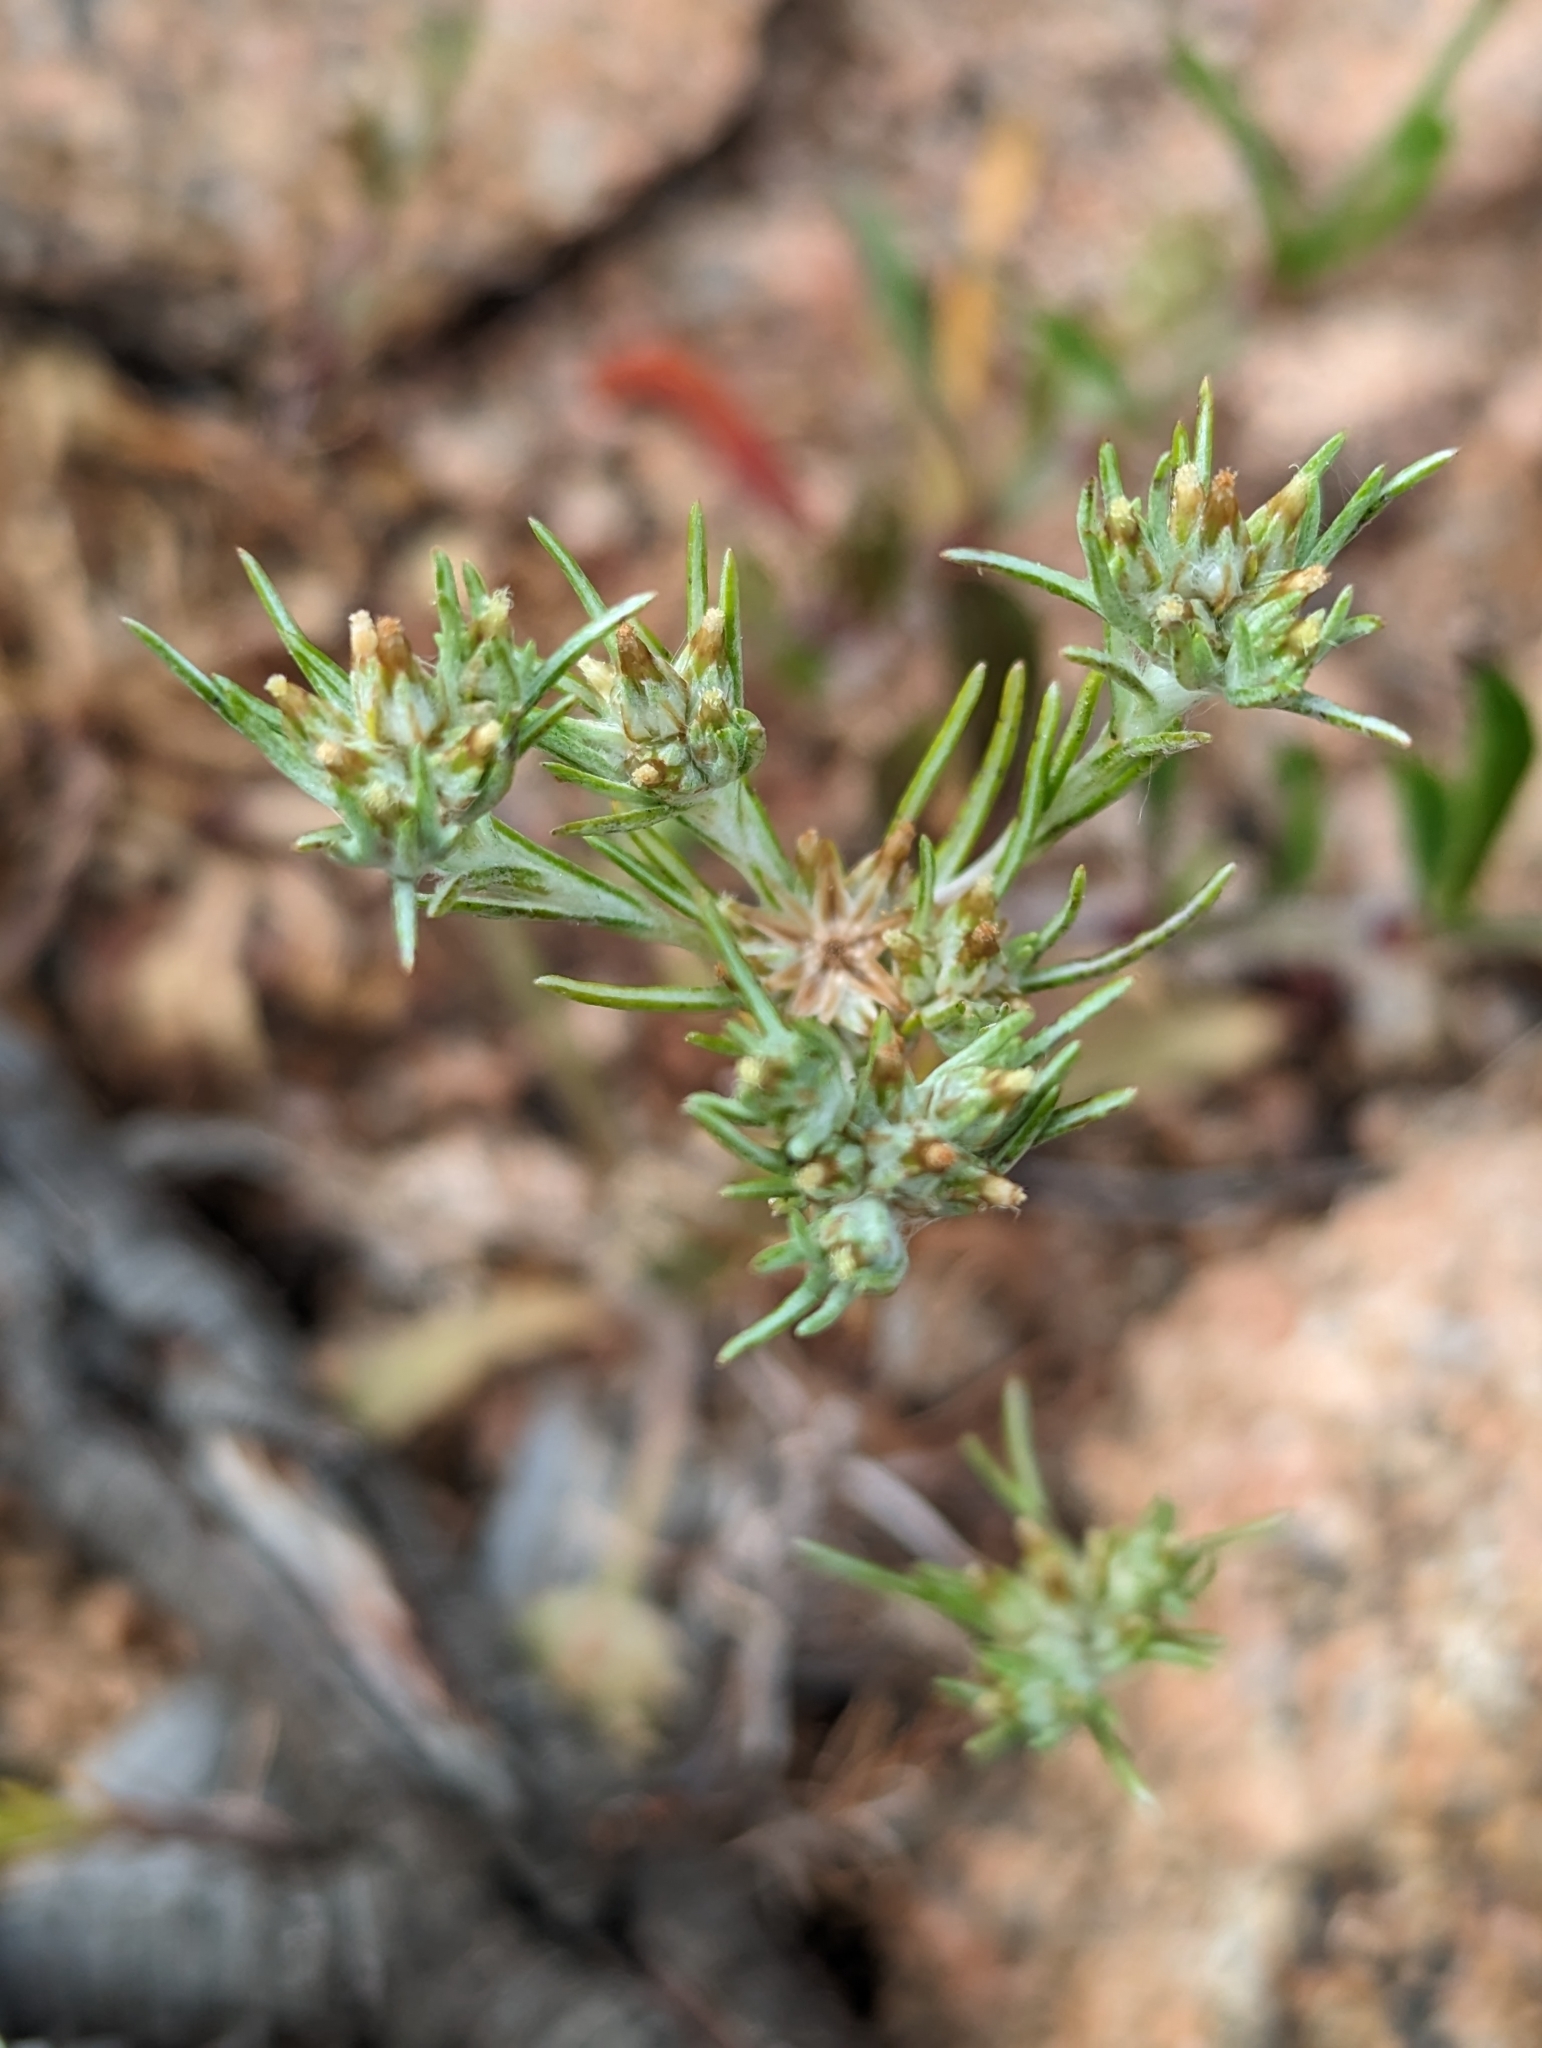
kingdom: Plantae
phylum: Tracheophyta
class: Magnoliopsida
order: Asterales
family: Asteraceae
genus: Logfia
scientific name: Logfia gallica
